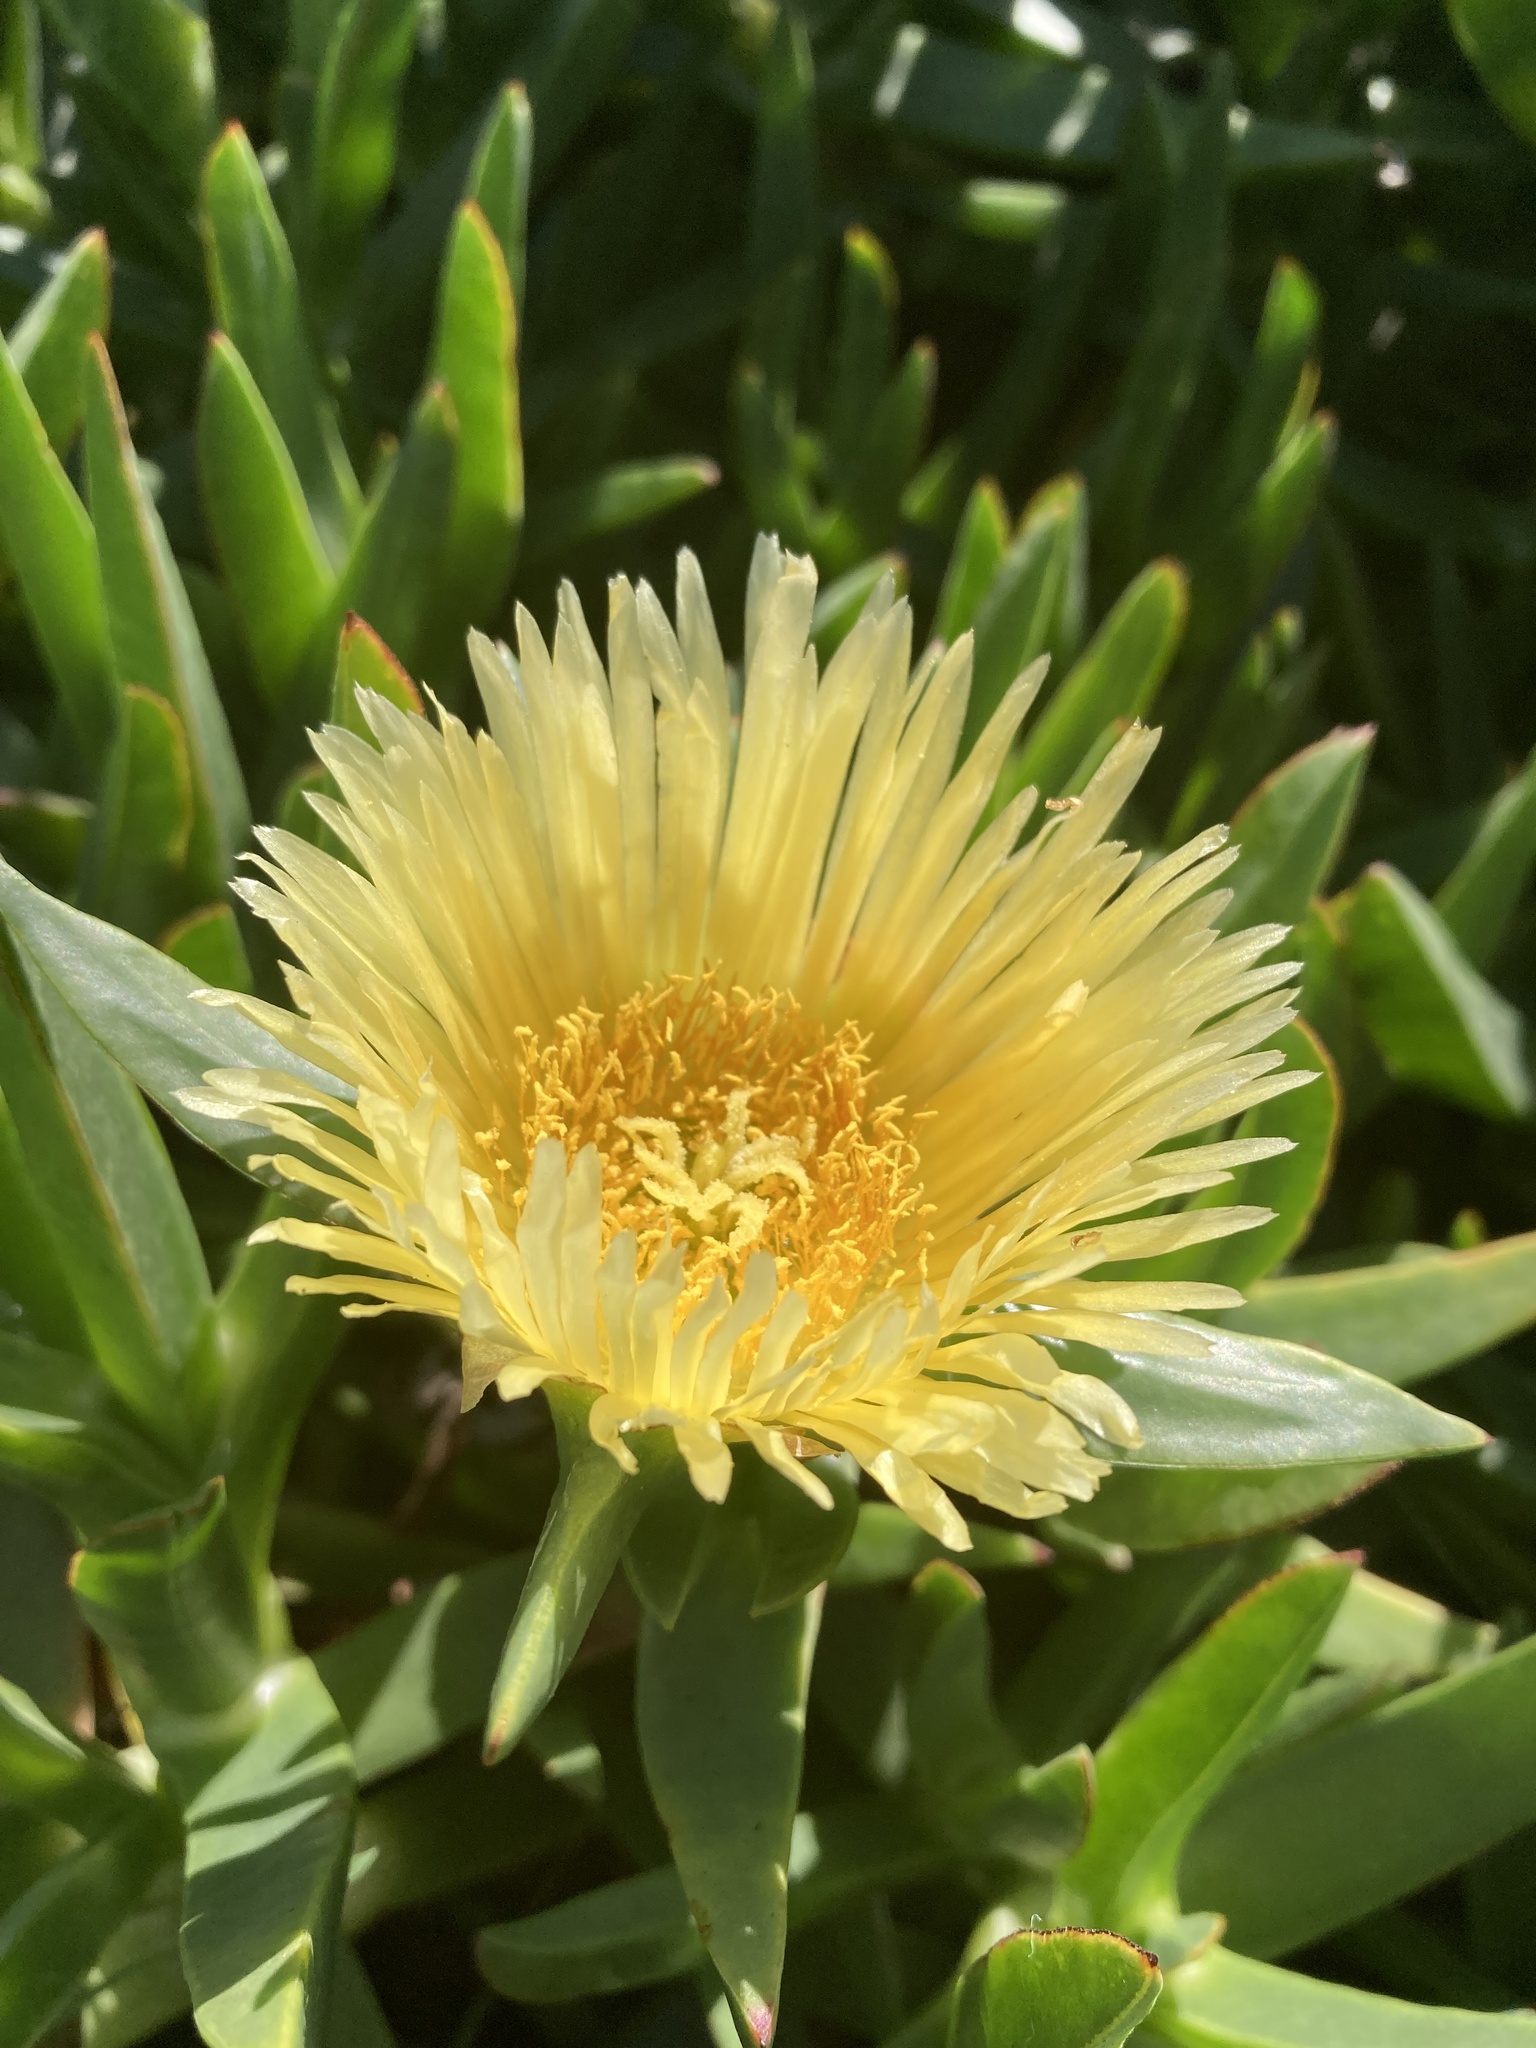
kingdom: Plantae
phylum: Tracheophyta
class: Magnoliopsida
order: Caryophyllales
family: Aizoaceae
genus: Carpobrotus
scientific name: Carpobrotus edulis
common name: Hottentot-fig
